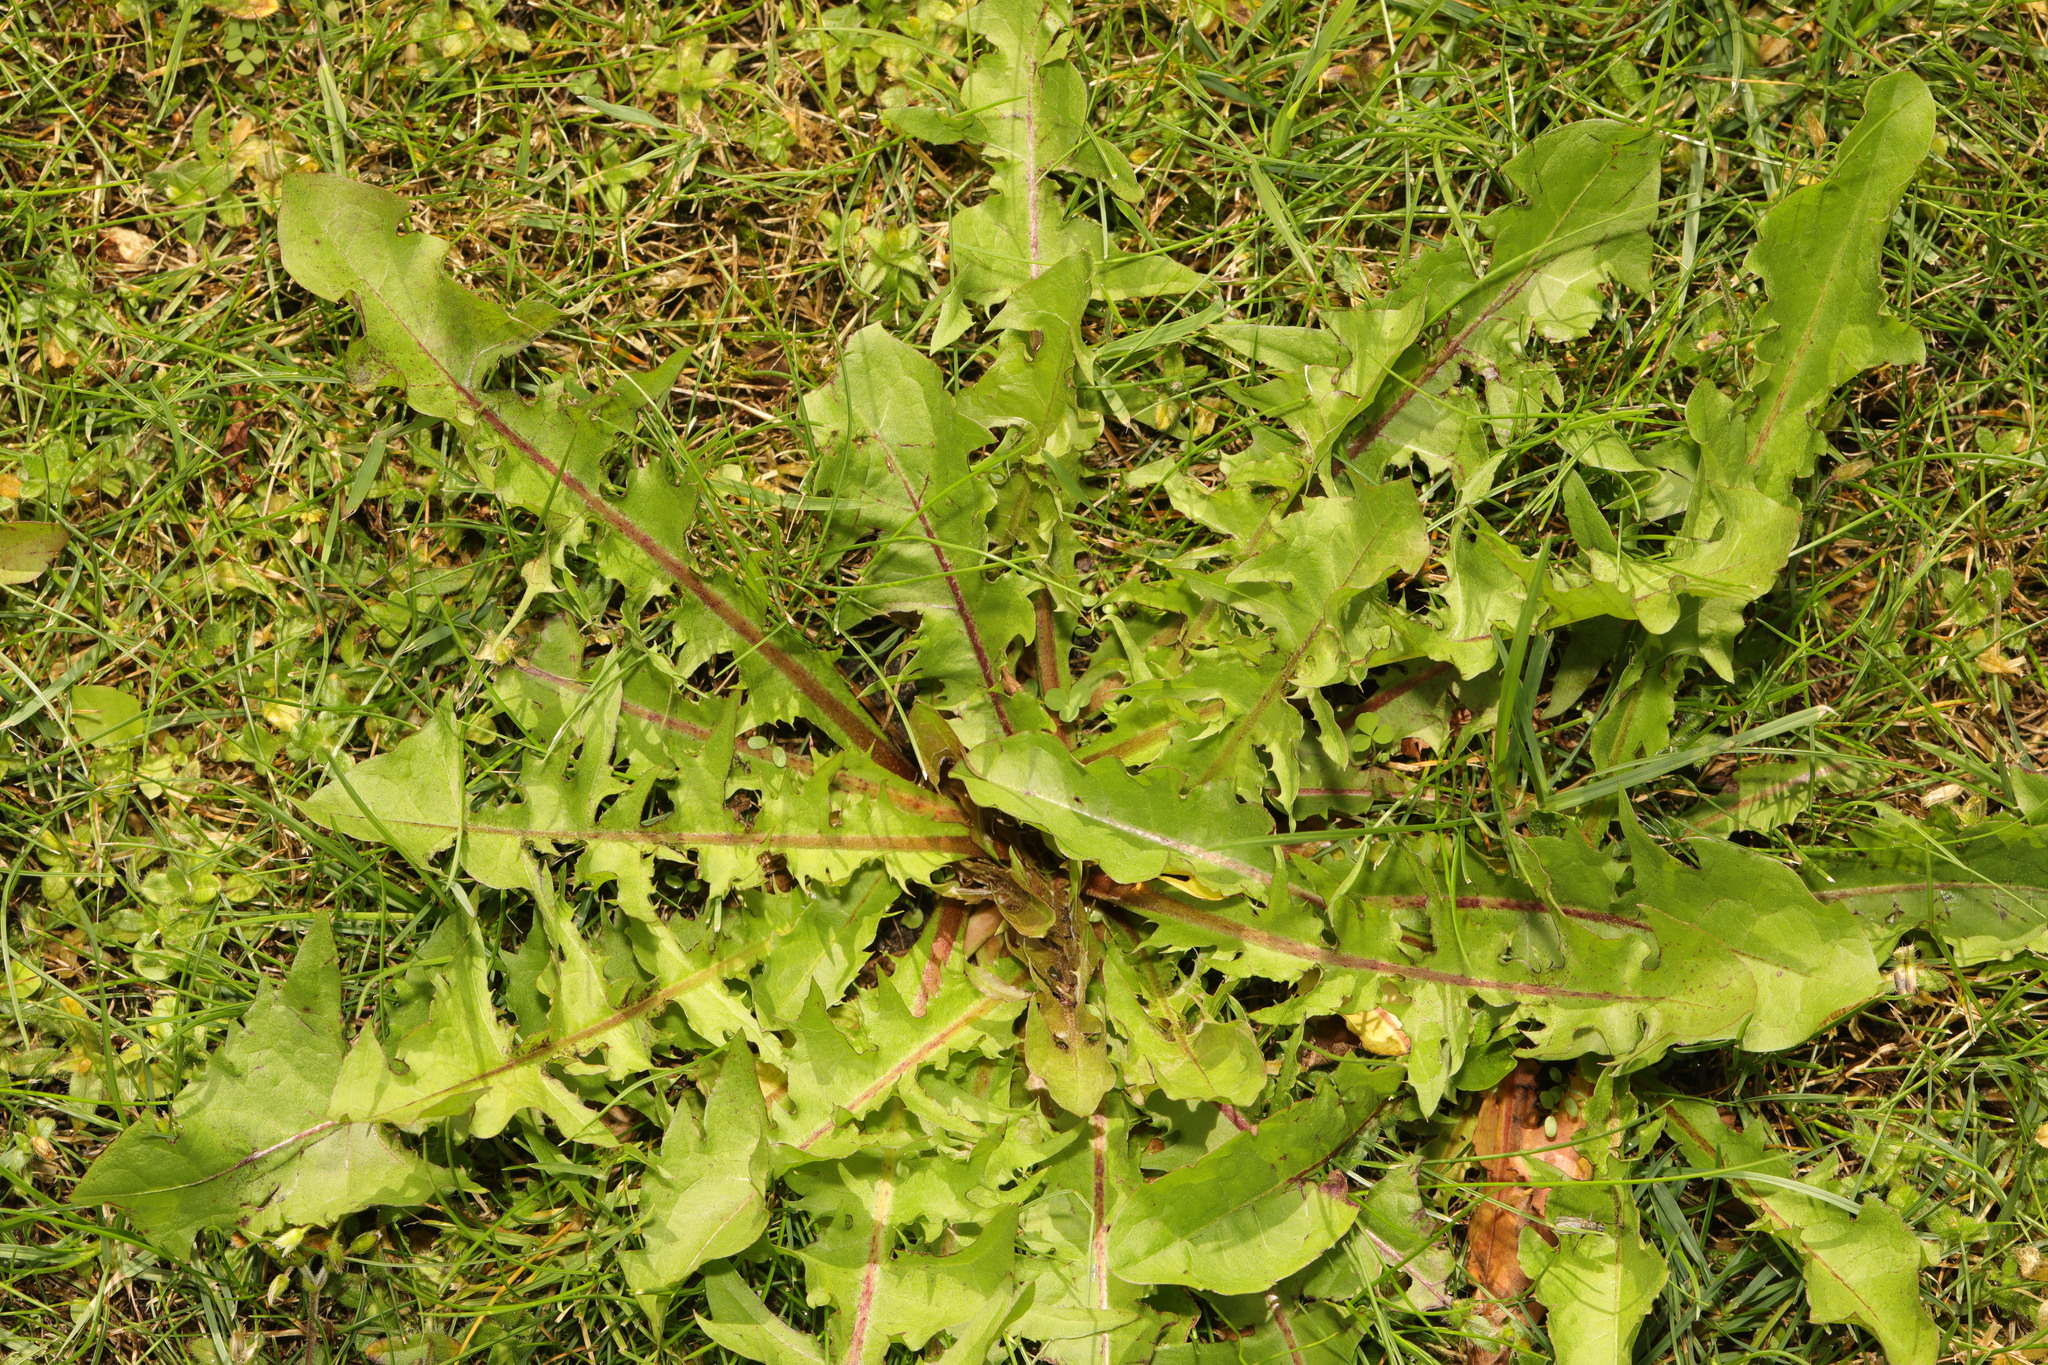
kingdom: Plantae
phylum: Tracheophyta
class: Magnoliopsida
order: Asterales
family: Asteraceae
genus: Taraxacum
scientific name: Taraxacum officinale
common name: Common dandelion
